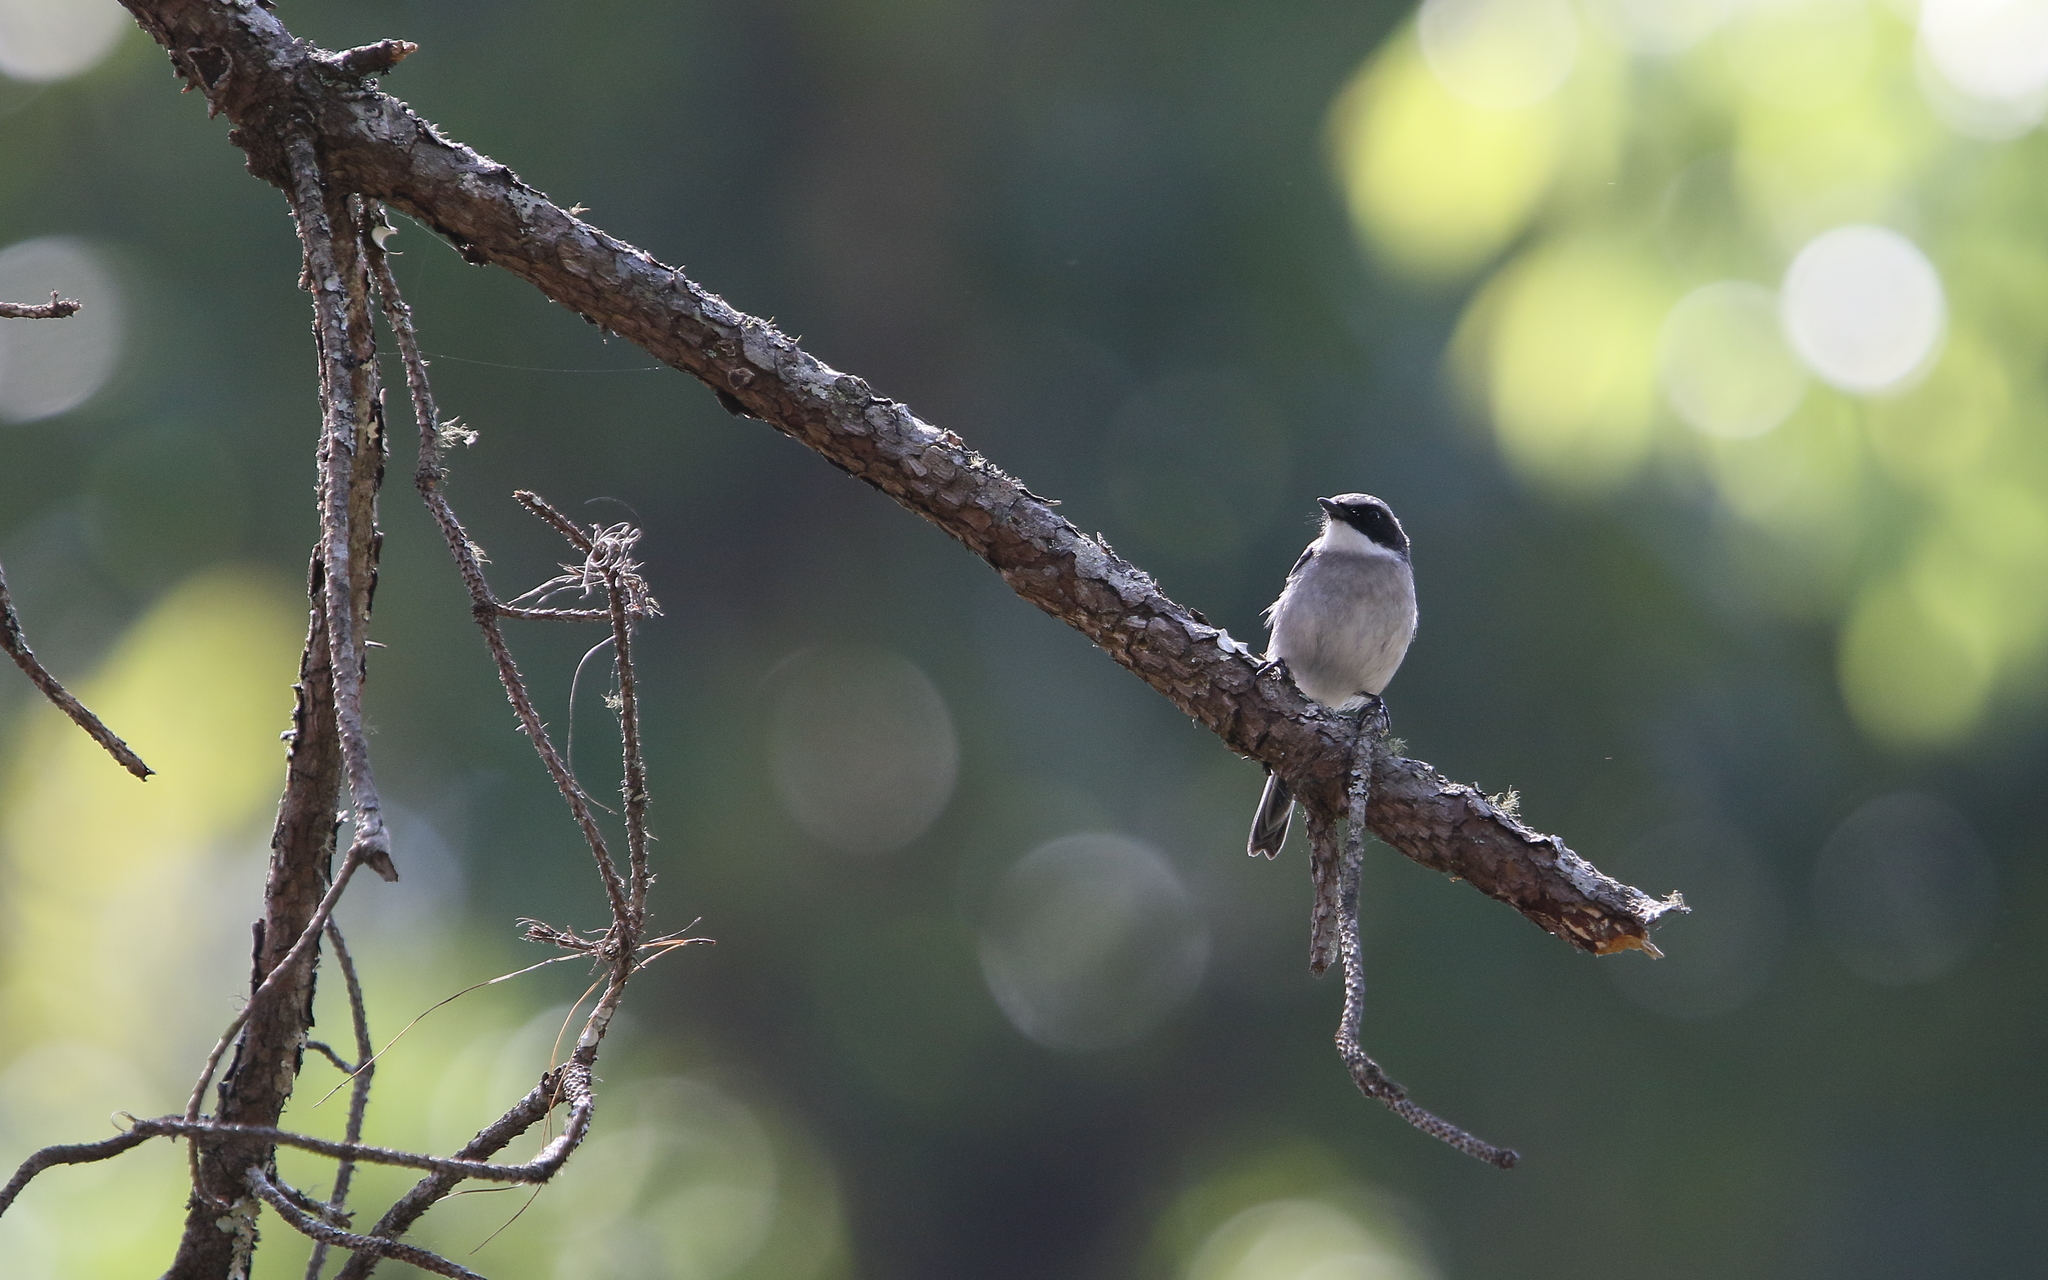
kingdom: Animalia
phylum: Chordata
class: Aves
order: Passeriformes
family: Muscicapidae
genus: Saxicola
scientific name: Saxicola ferreus
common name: Grey bush chat
